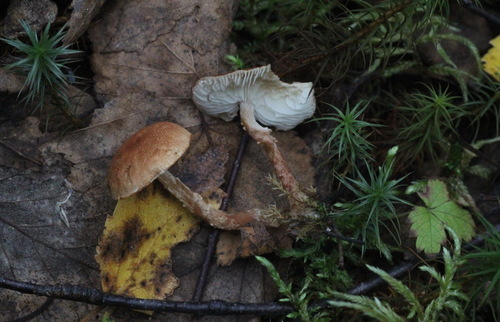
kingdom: Fungi
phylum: Basidiomycota
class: Agaricomycetes
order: Agaricales
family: Tricholomataceae
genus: Cystoderma
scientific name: Cystoderma jasonis
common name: Pine powdercap
